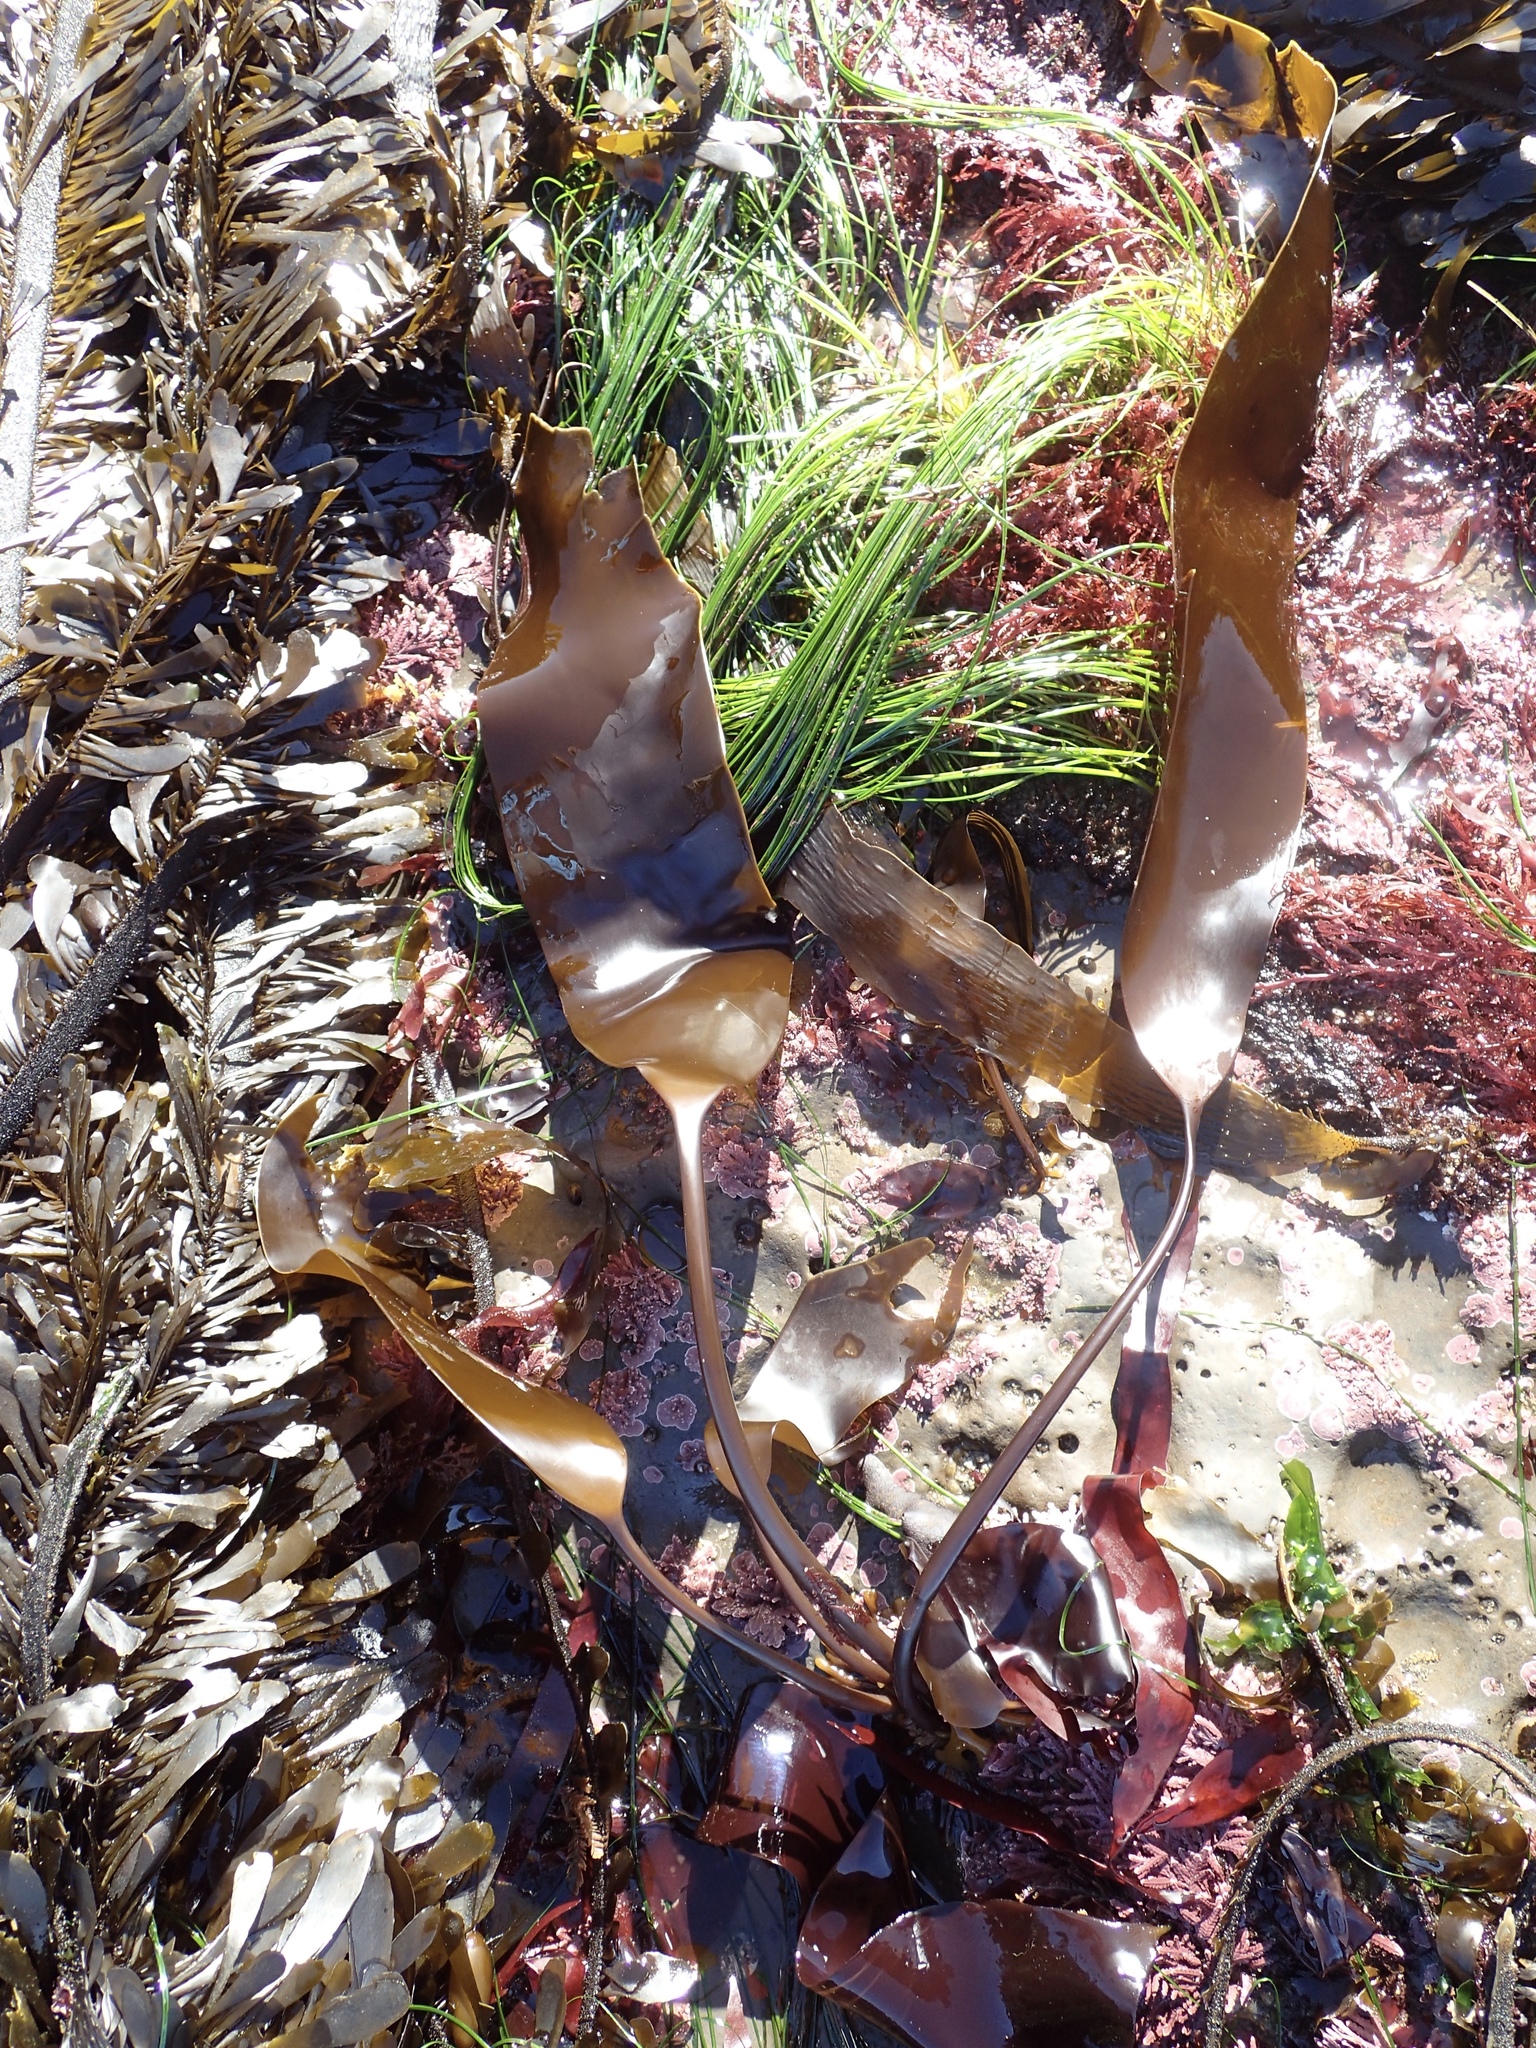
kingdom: Chromista
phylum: Ochrophyta
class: Phaeophyceae
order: Laminariales
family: Laminariaceae
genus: Laminaria
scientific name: Laminaria sinclairii
